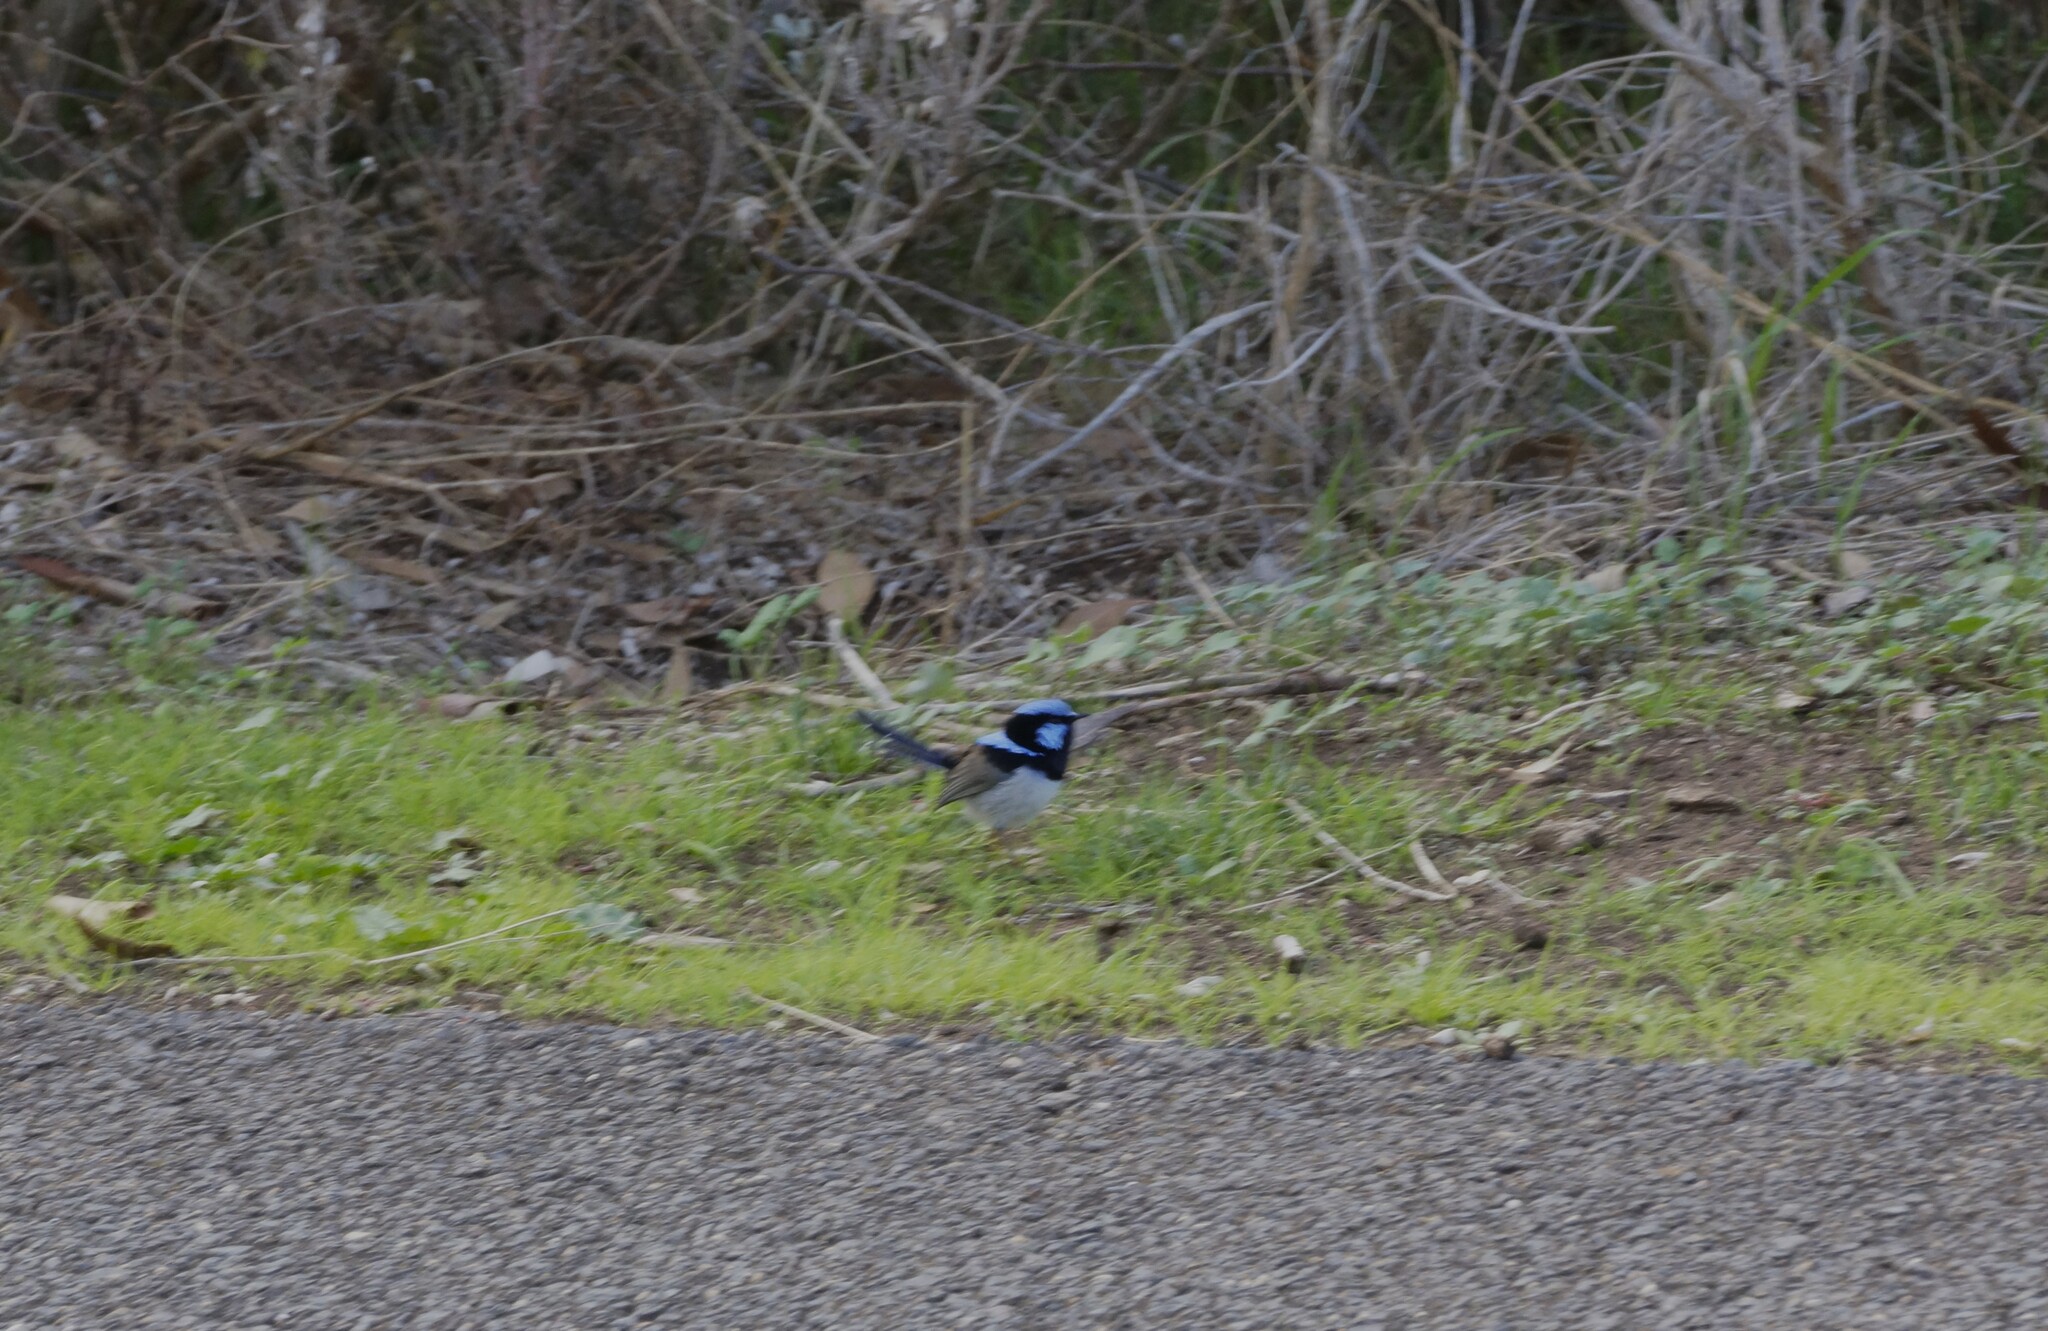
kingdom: Animalia
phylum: Chordata
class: Aves
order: Passeriformes
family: Maluridae
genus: Malurus
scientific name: Malurus cyaneus
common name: Superb fairywren
